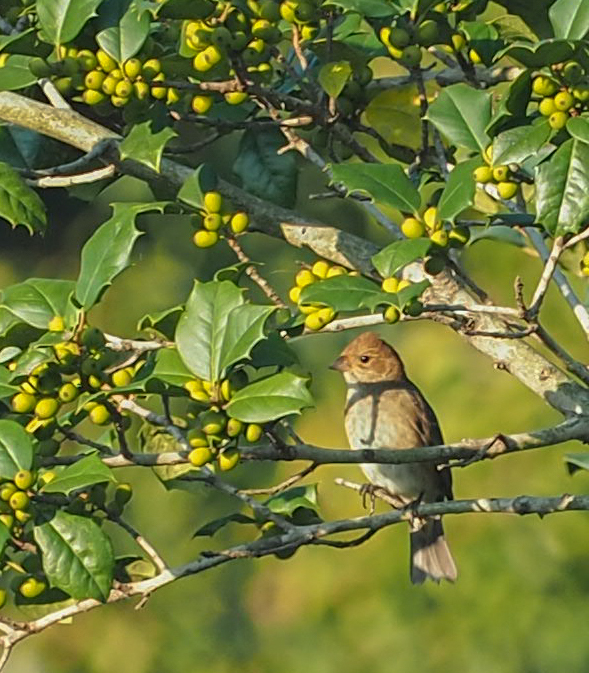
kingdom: Animalia
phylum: Chordata
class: Aves
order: Passeriformes
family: Cardinalidae
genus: Passerina
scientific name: Passerina cyanea
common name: Indigo bunting
